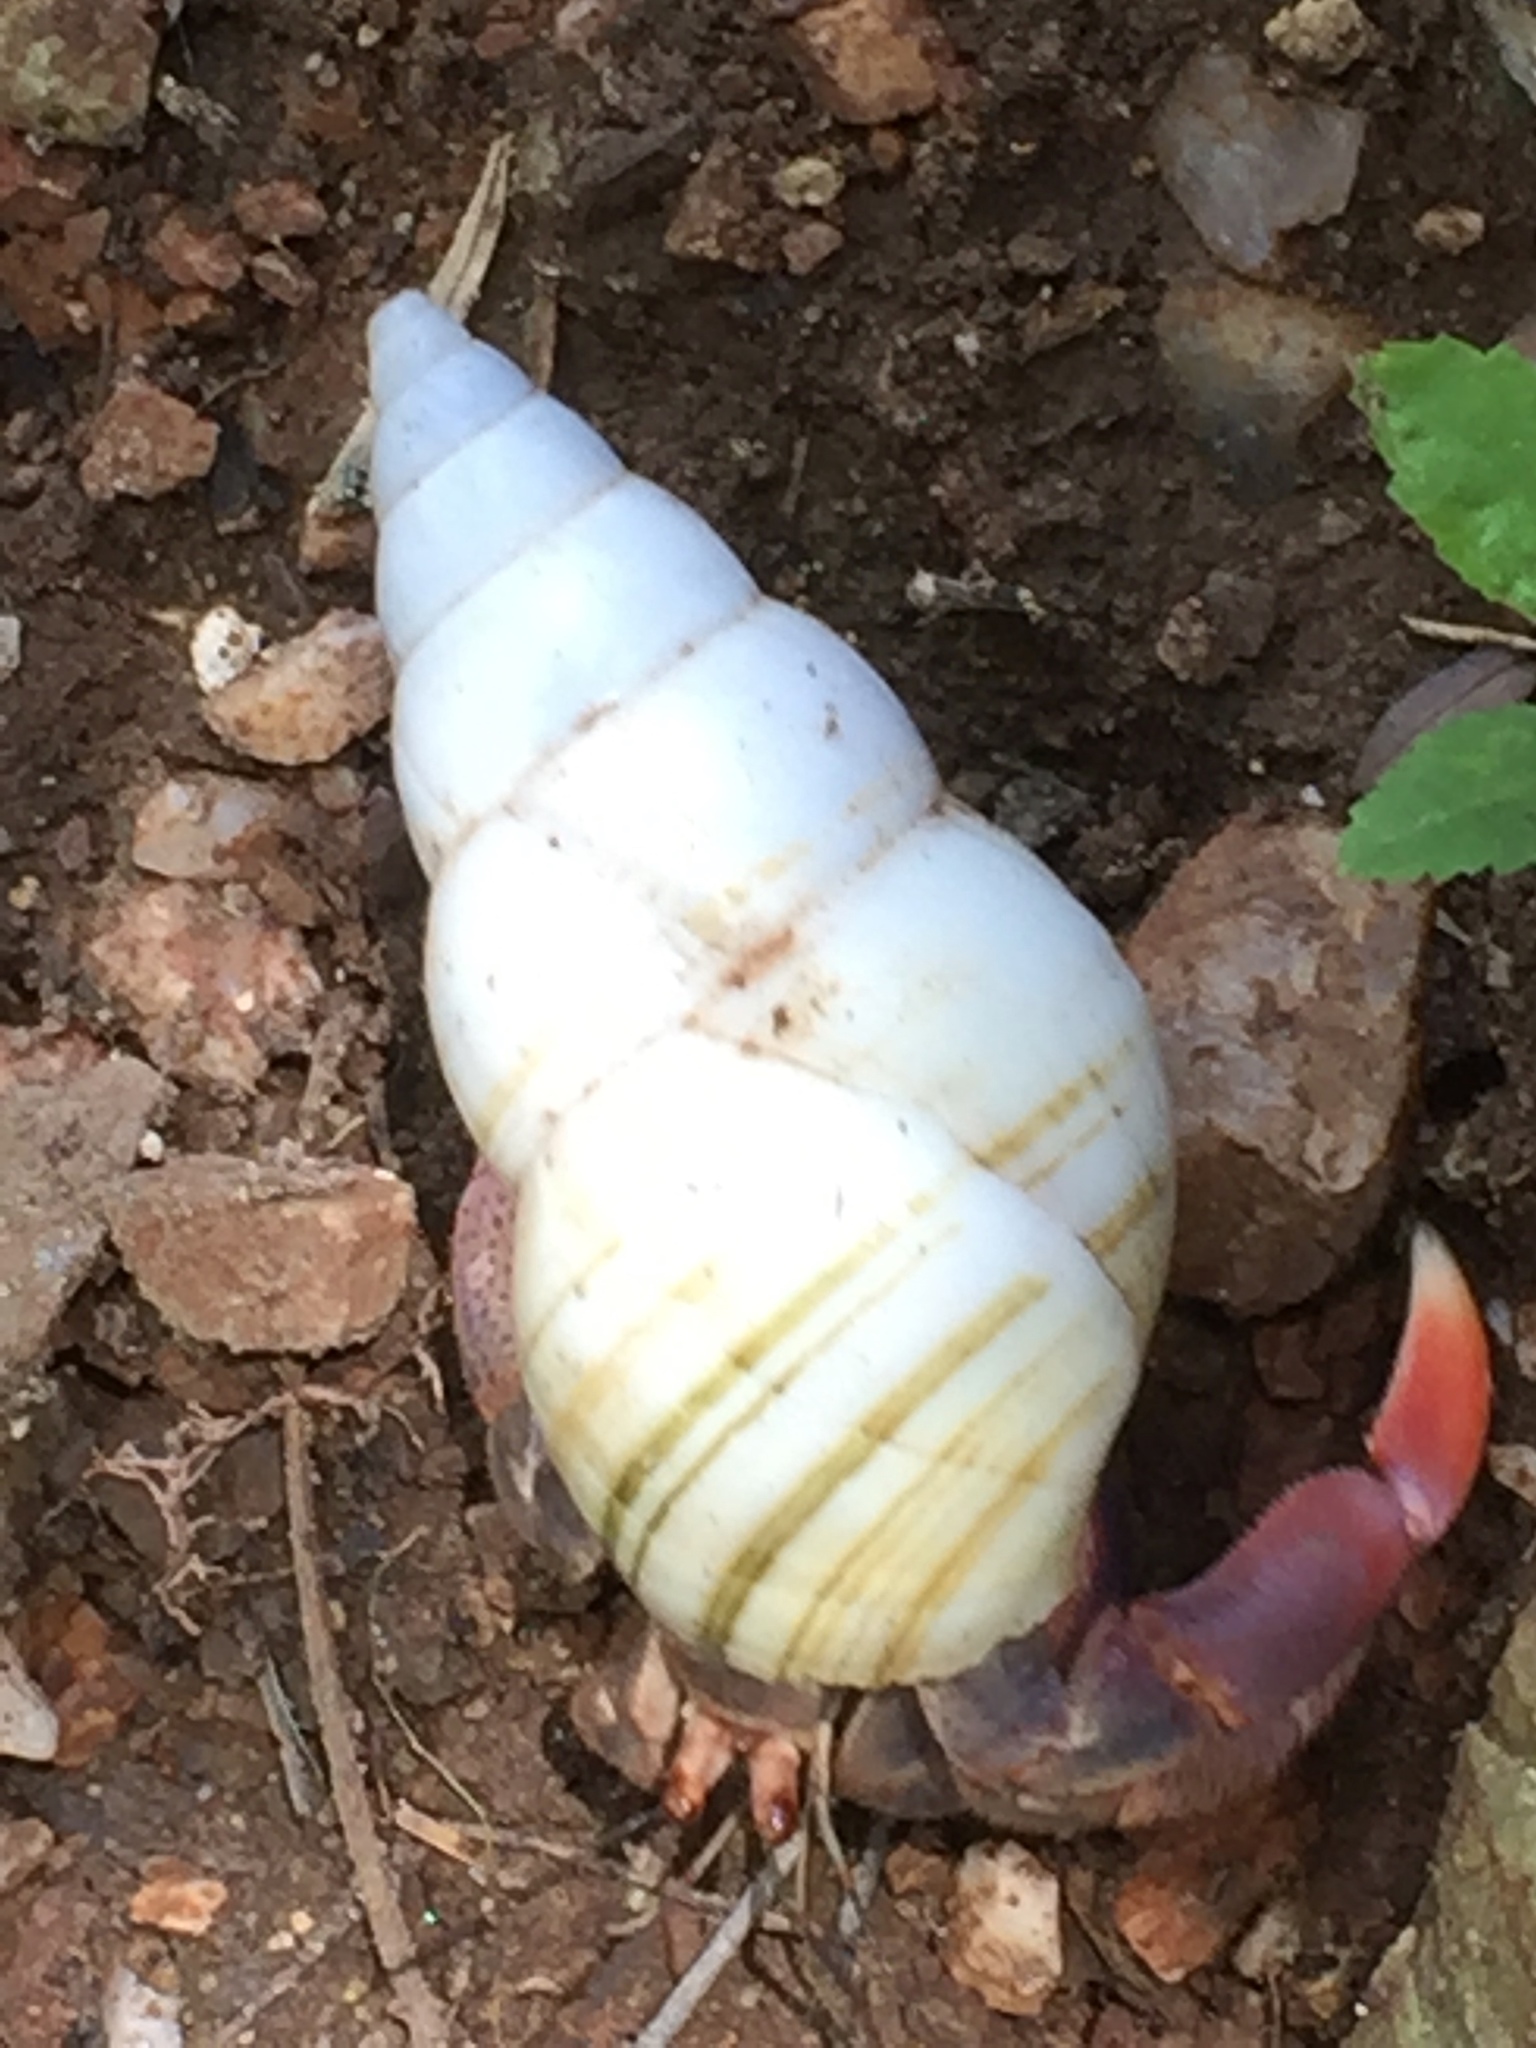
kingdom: Animalia
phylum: Mollusca
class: Gastropoda
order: Stylommatophora
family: Orthalicidae
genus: Liguus
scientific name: Liguus fasciatus
